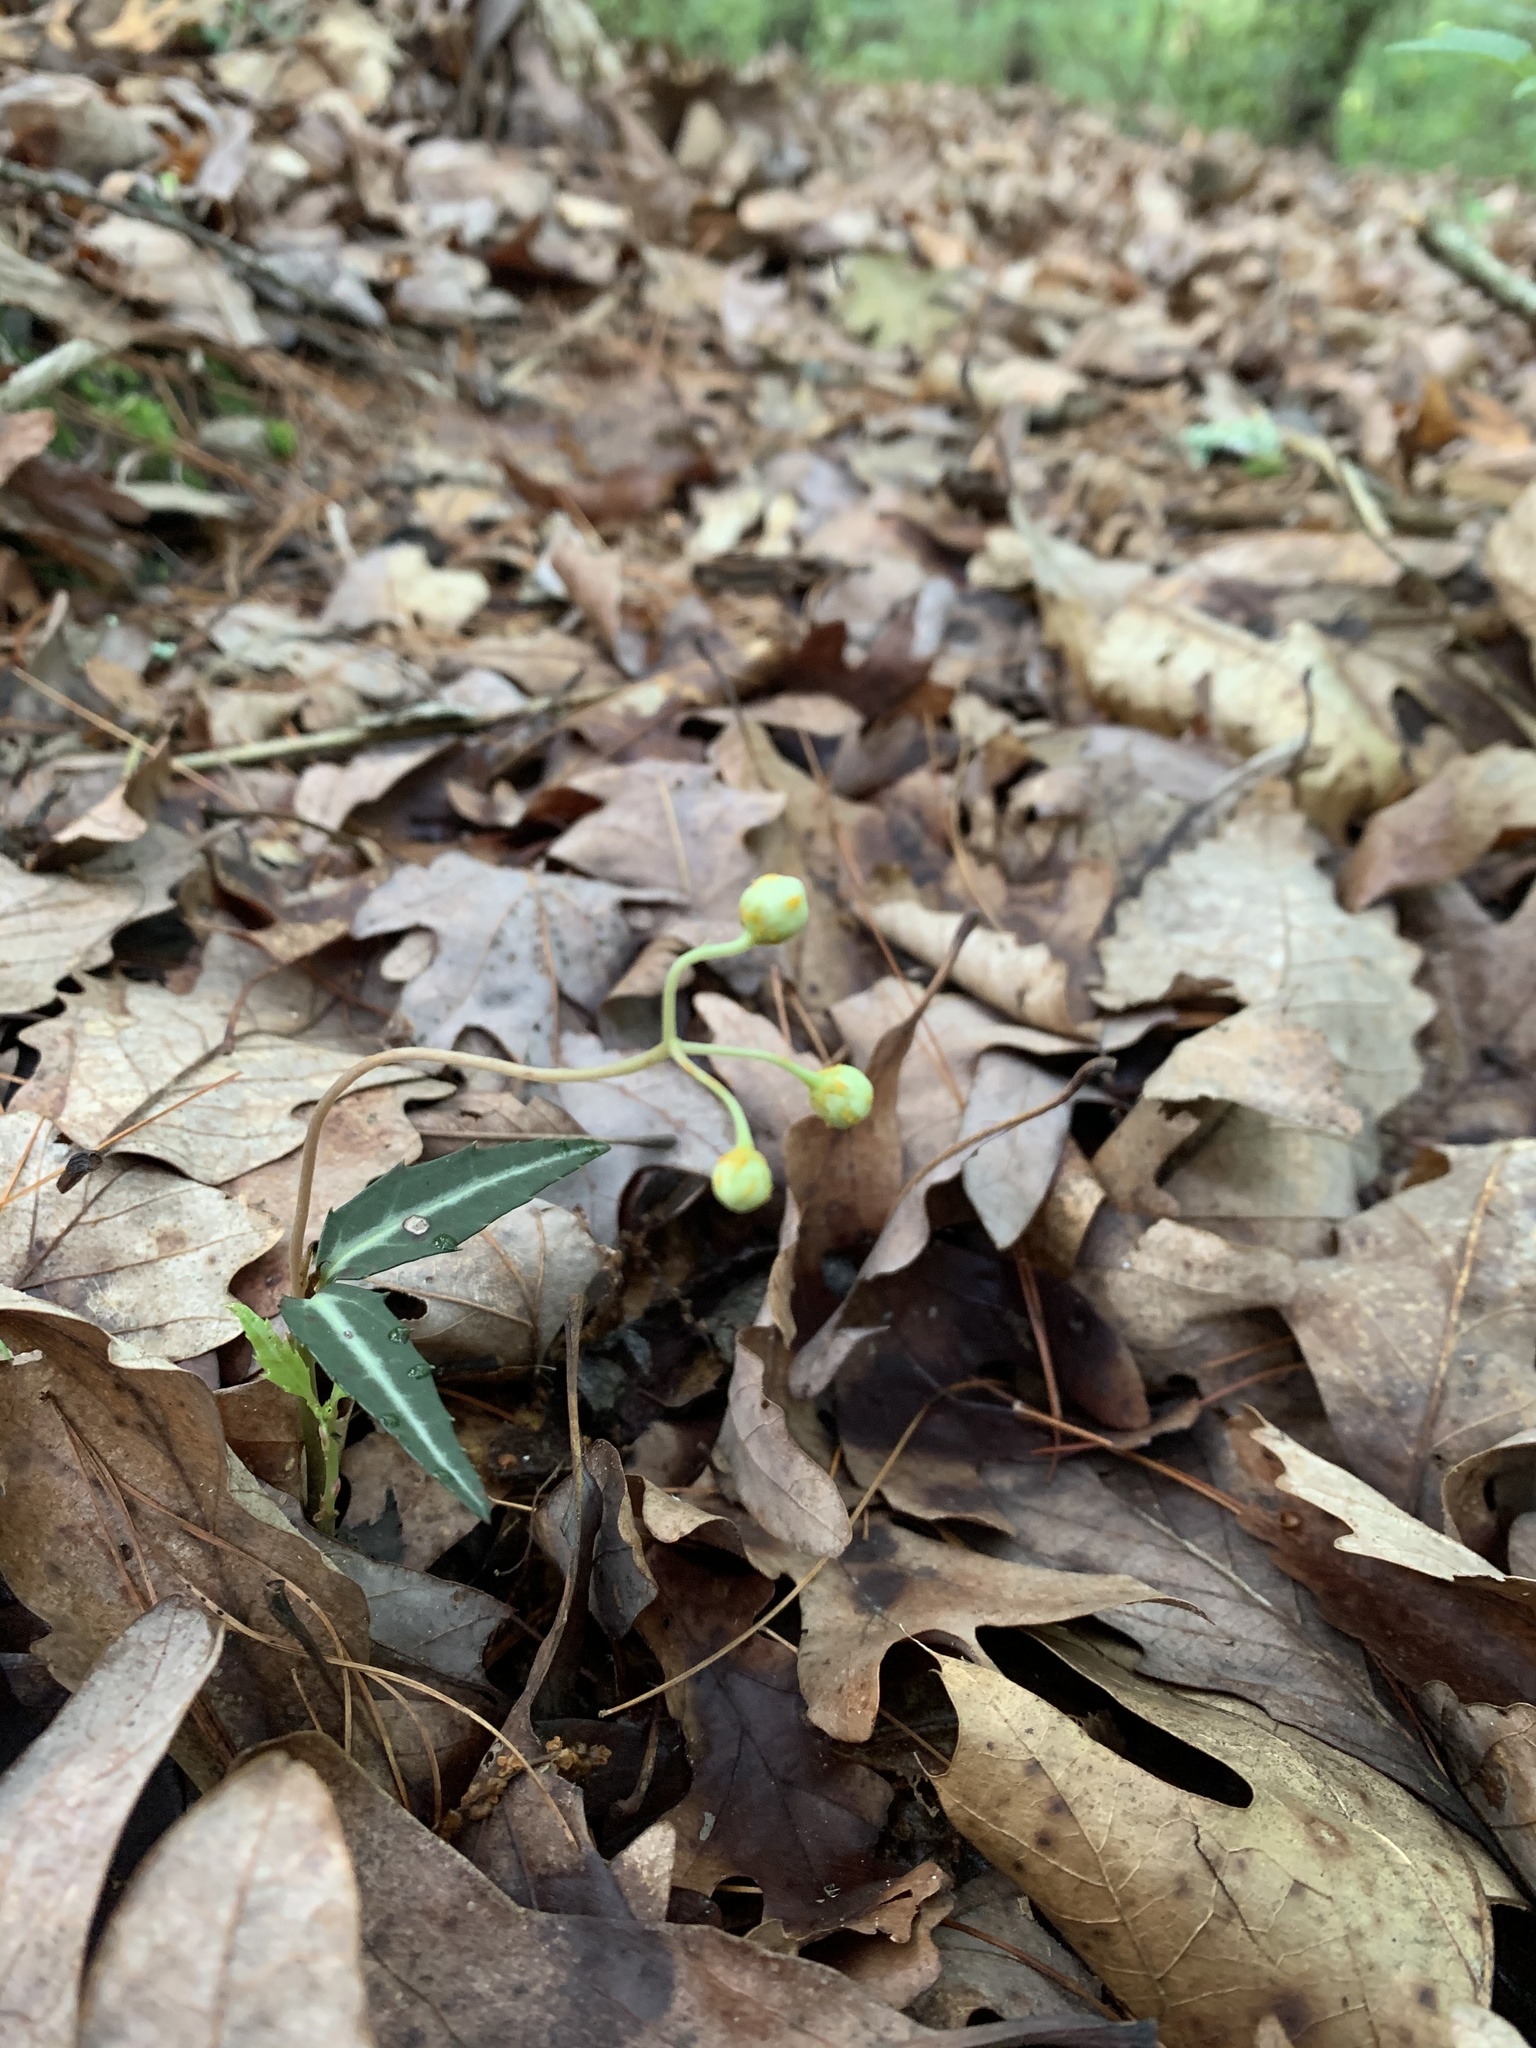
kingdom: Plantae
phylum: Tracheophyta
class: Magnoliopsida
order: Ericales
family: Ericaceae
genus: Chimaphila
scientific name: Chimaphila maculata
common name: Spotted pipsissewa
